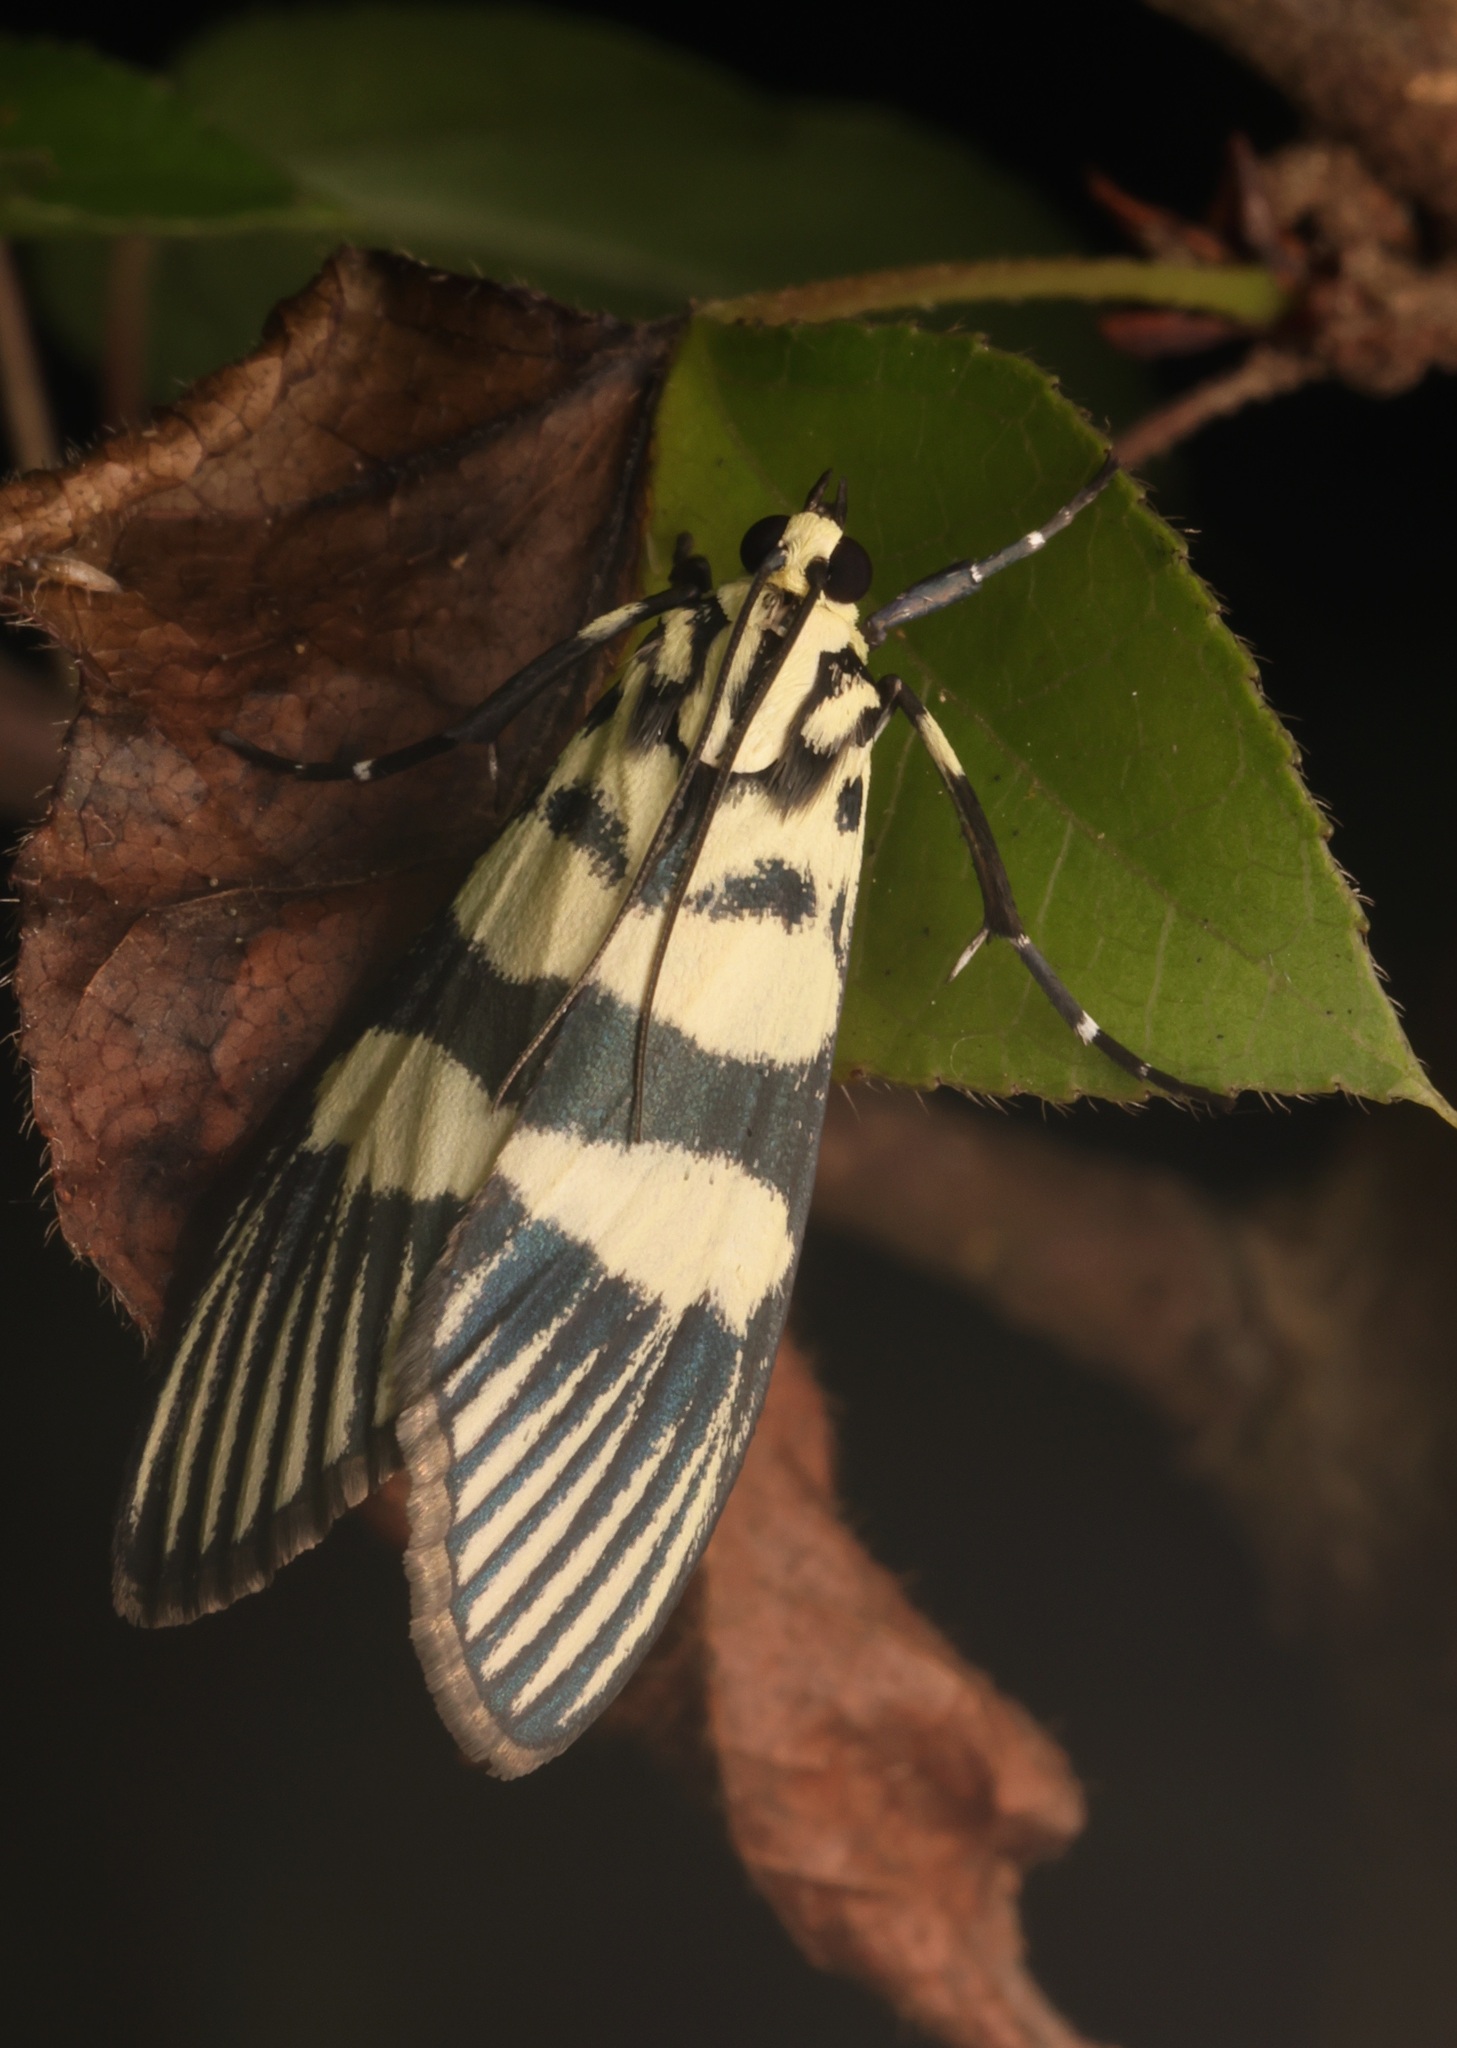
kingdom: Animalia
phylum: Arthropoda
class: Insecta
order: Lepidoptera
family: Crambidae
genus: Heortia
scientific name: Heortia vitessoides
